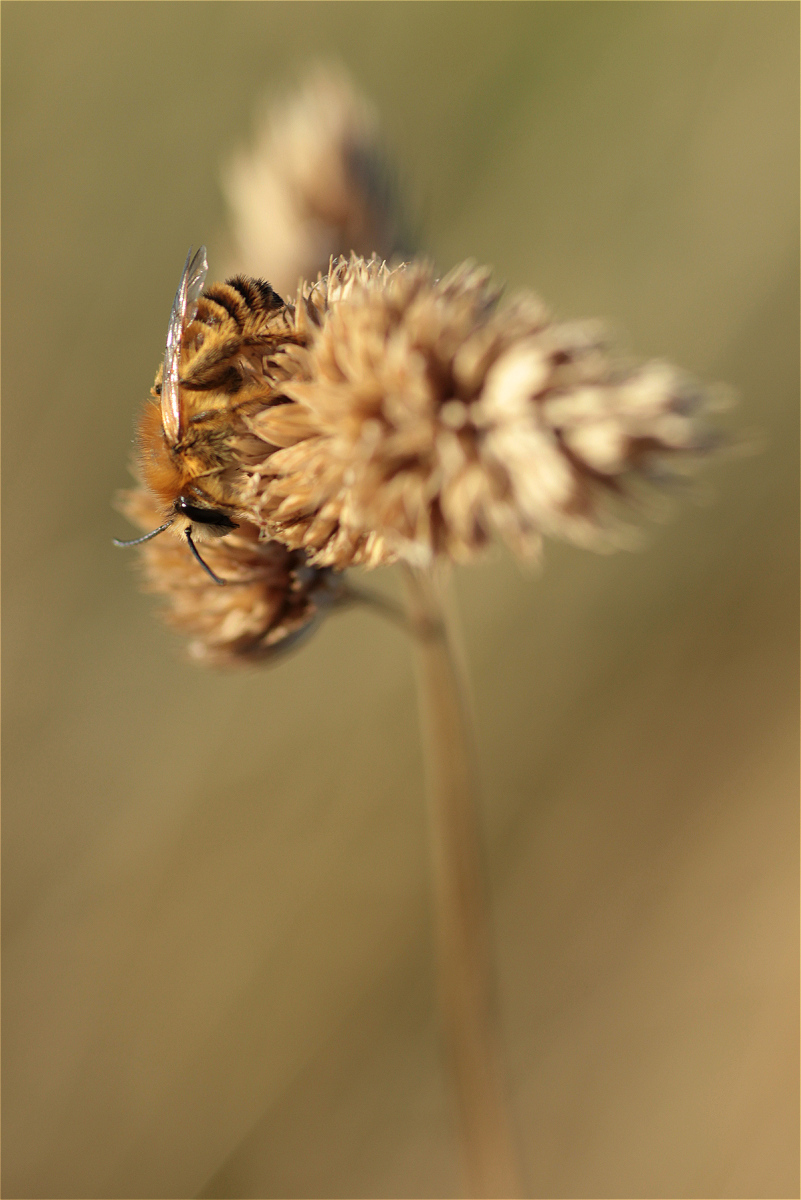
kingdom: Animalia
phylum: Arthropoda
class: Insecta
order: Hymenoptera
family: Melittidae
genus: Dasypoda
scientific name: Dasypoda hirtipes
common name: Pantaloon bee
